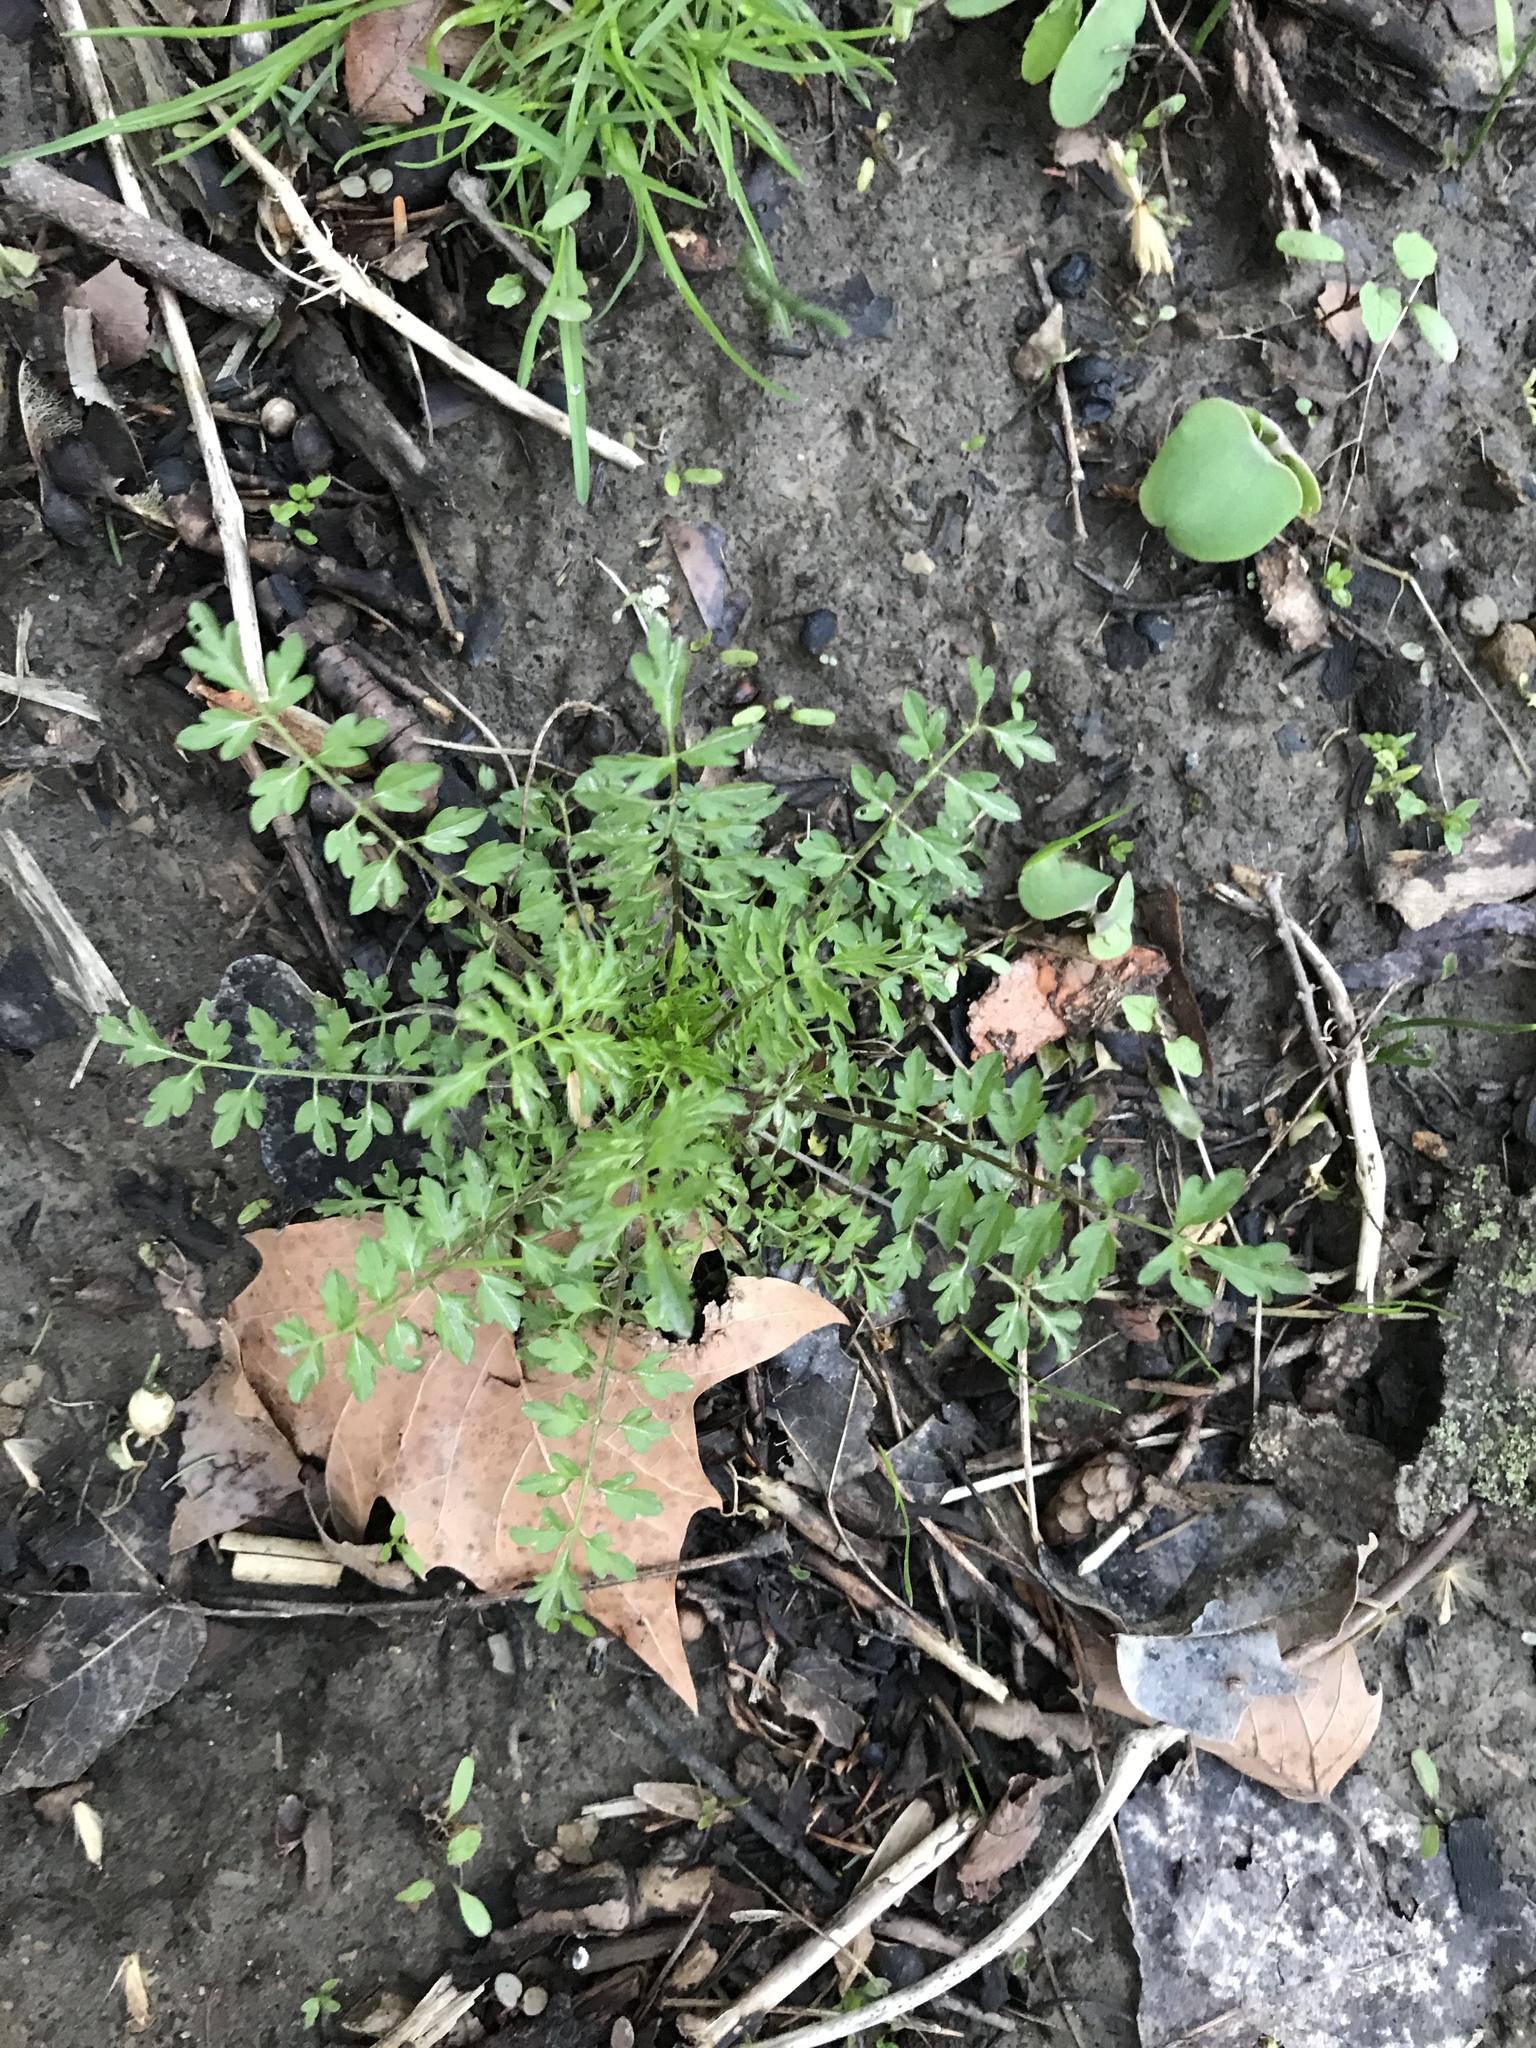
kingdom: Plantae
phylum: Tracheophyta
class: Magnoliopsida
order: Brassicales
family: Brassicaceae
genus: Cardamine
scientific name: Cardamine impatiens
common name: Narrow-leaved bitter-cress
